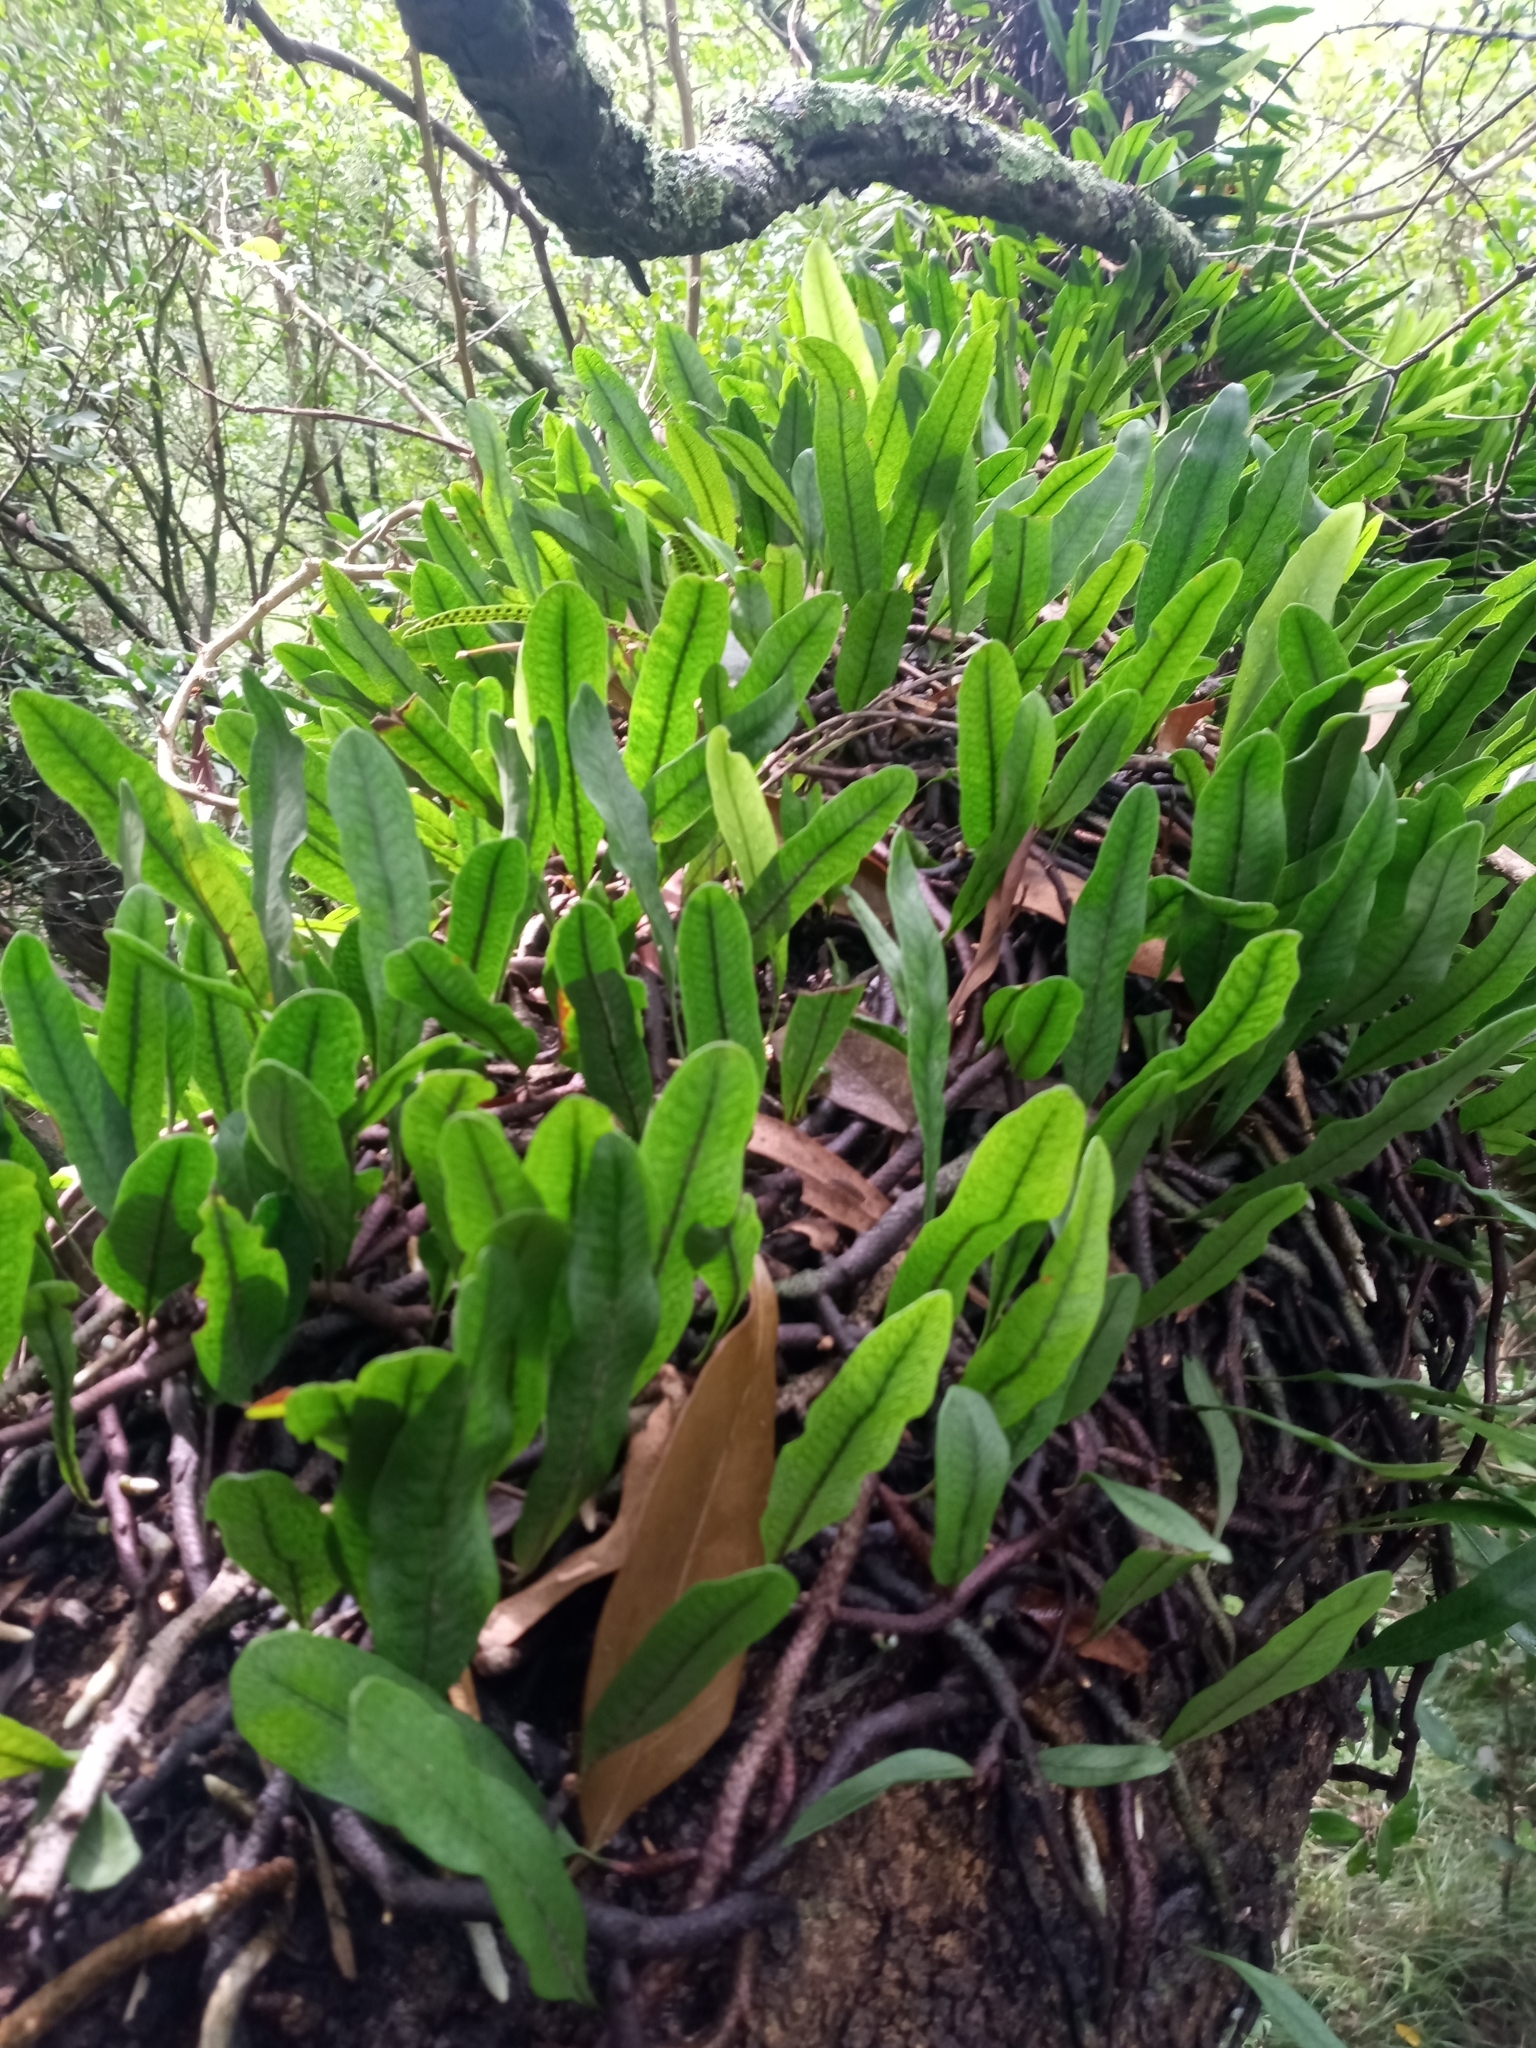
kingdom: Plantae
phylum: Tracheophyta
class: Polypodiopsida
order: Polypodiales
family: Polypodiaceae
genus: Microgramma
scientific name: Microgramma squamulosa
